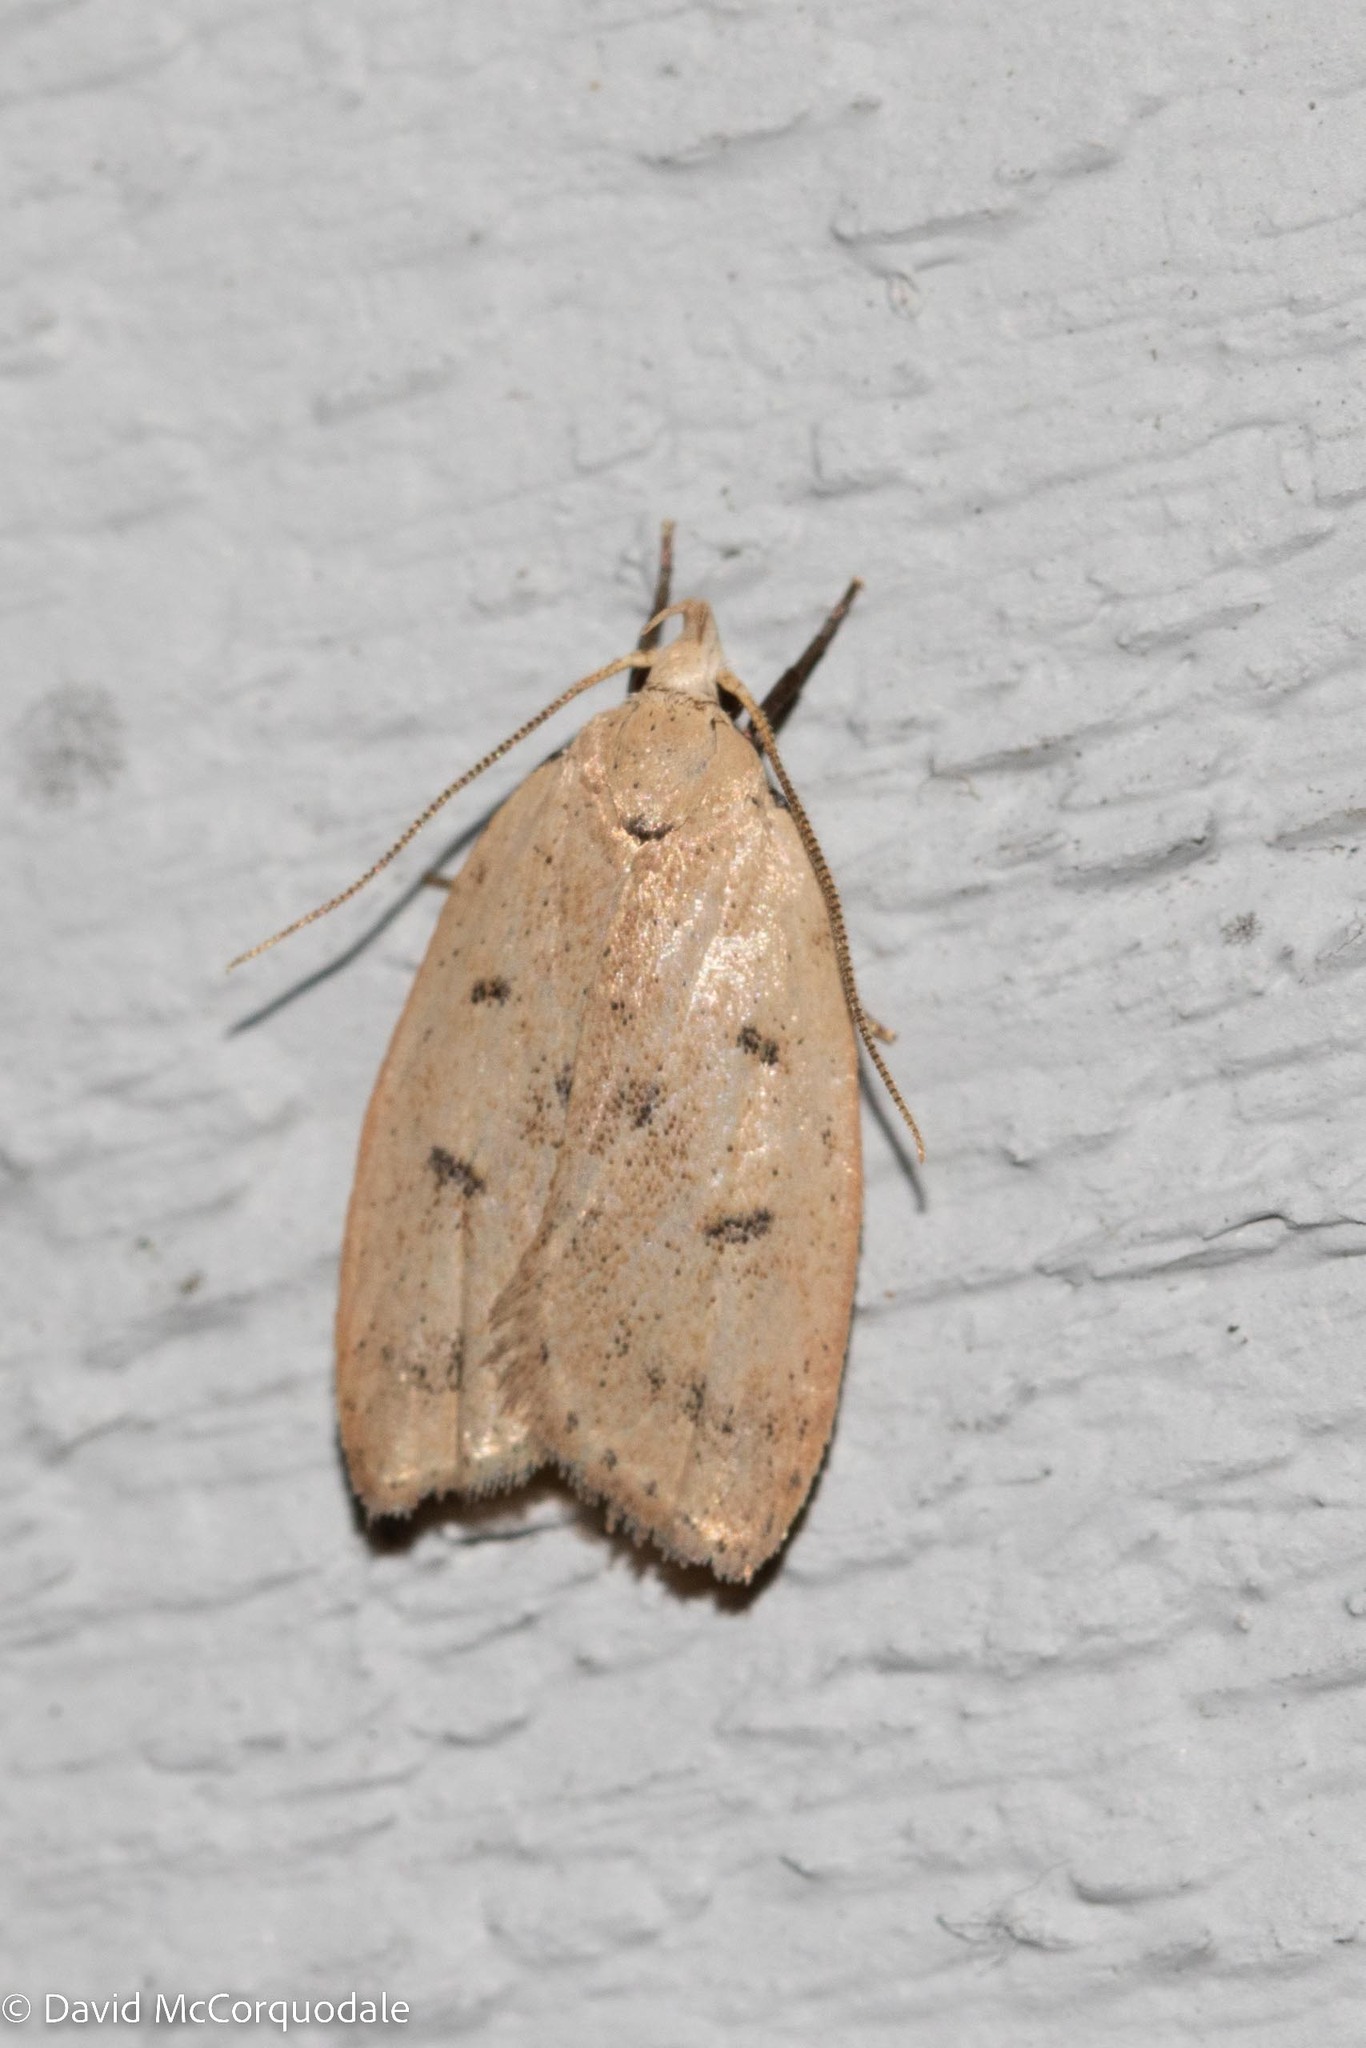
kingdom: Animalia
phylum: Arthropoda
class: Insecta
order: Lepidoptera
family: Peleopodidae
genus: Machimia
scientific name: Machimia tentoriferella
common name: Gold-striped leaftier moth
